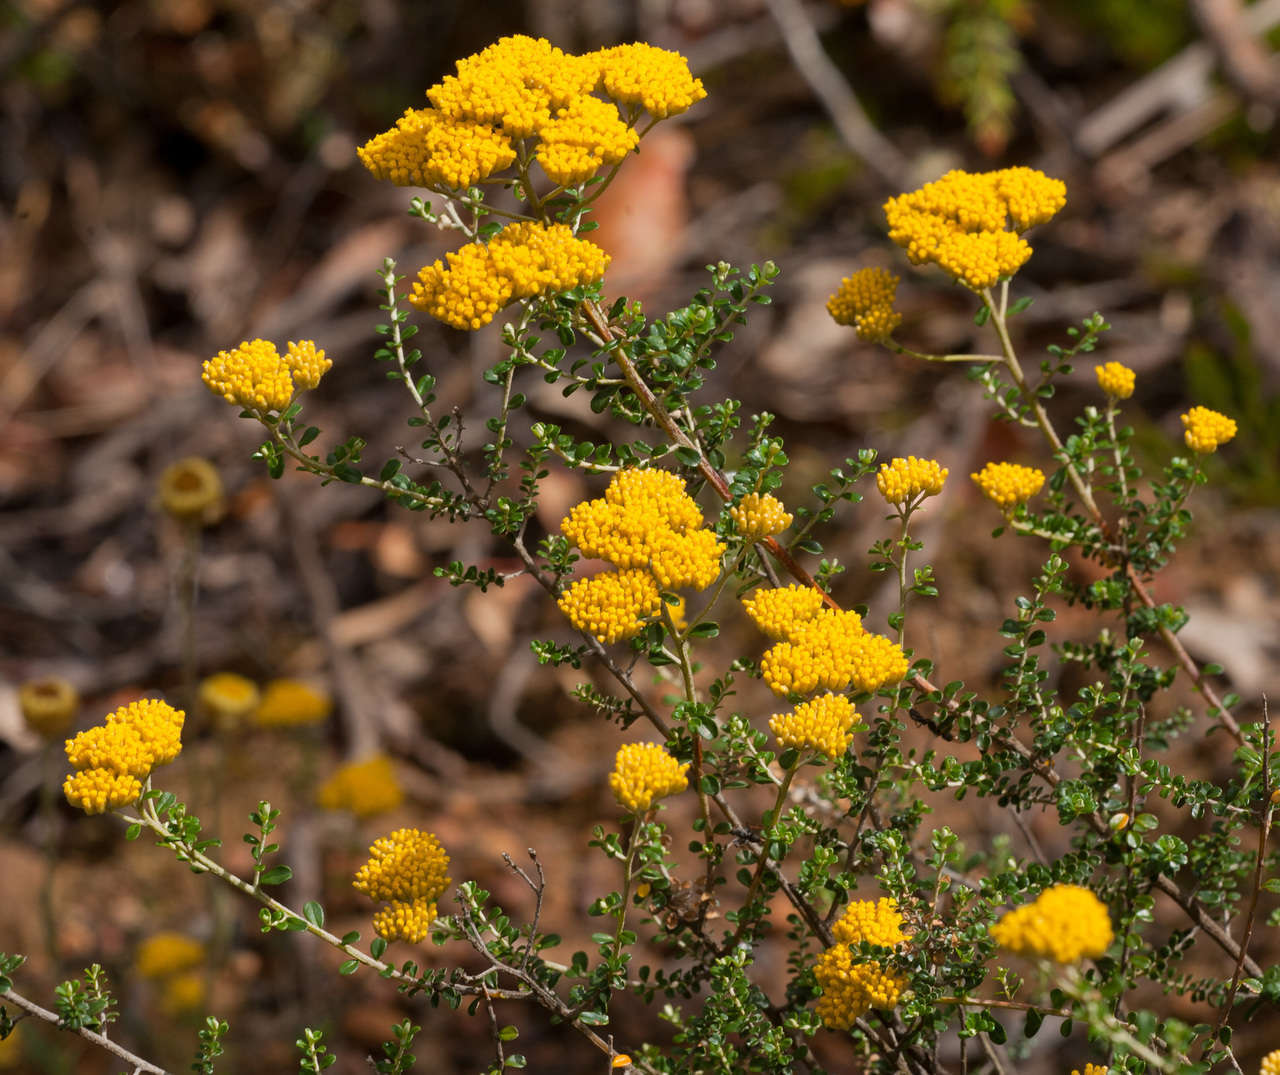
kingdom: Plantae
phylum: Tracheophyta
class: Magnoliopsida
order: Asterales
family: Asteraceae
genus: Ozothamnus
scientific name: Ozothamnus obcordatus
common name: Grey everlasting
